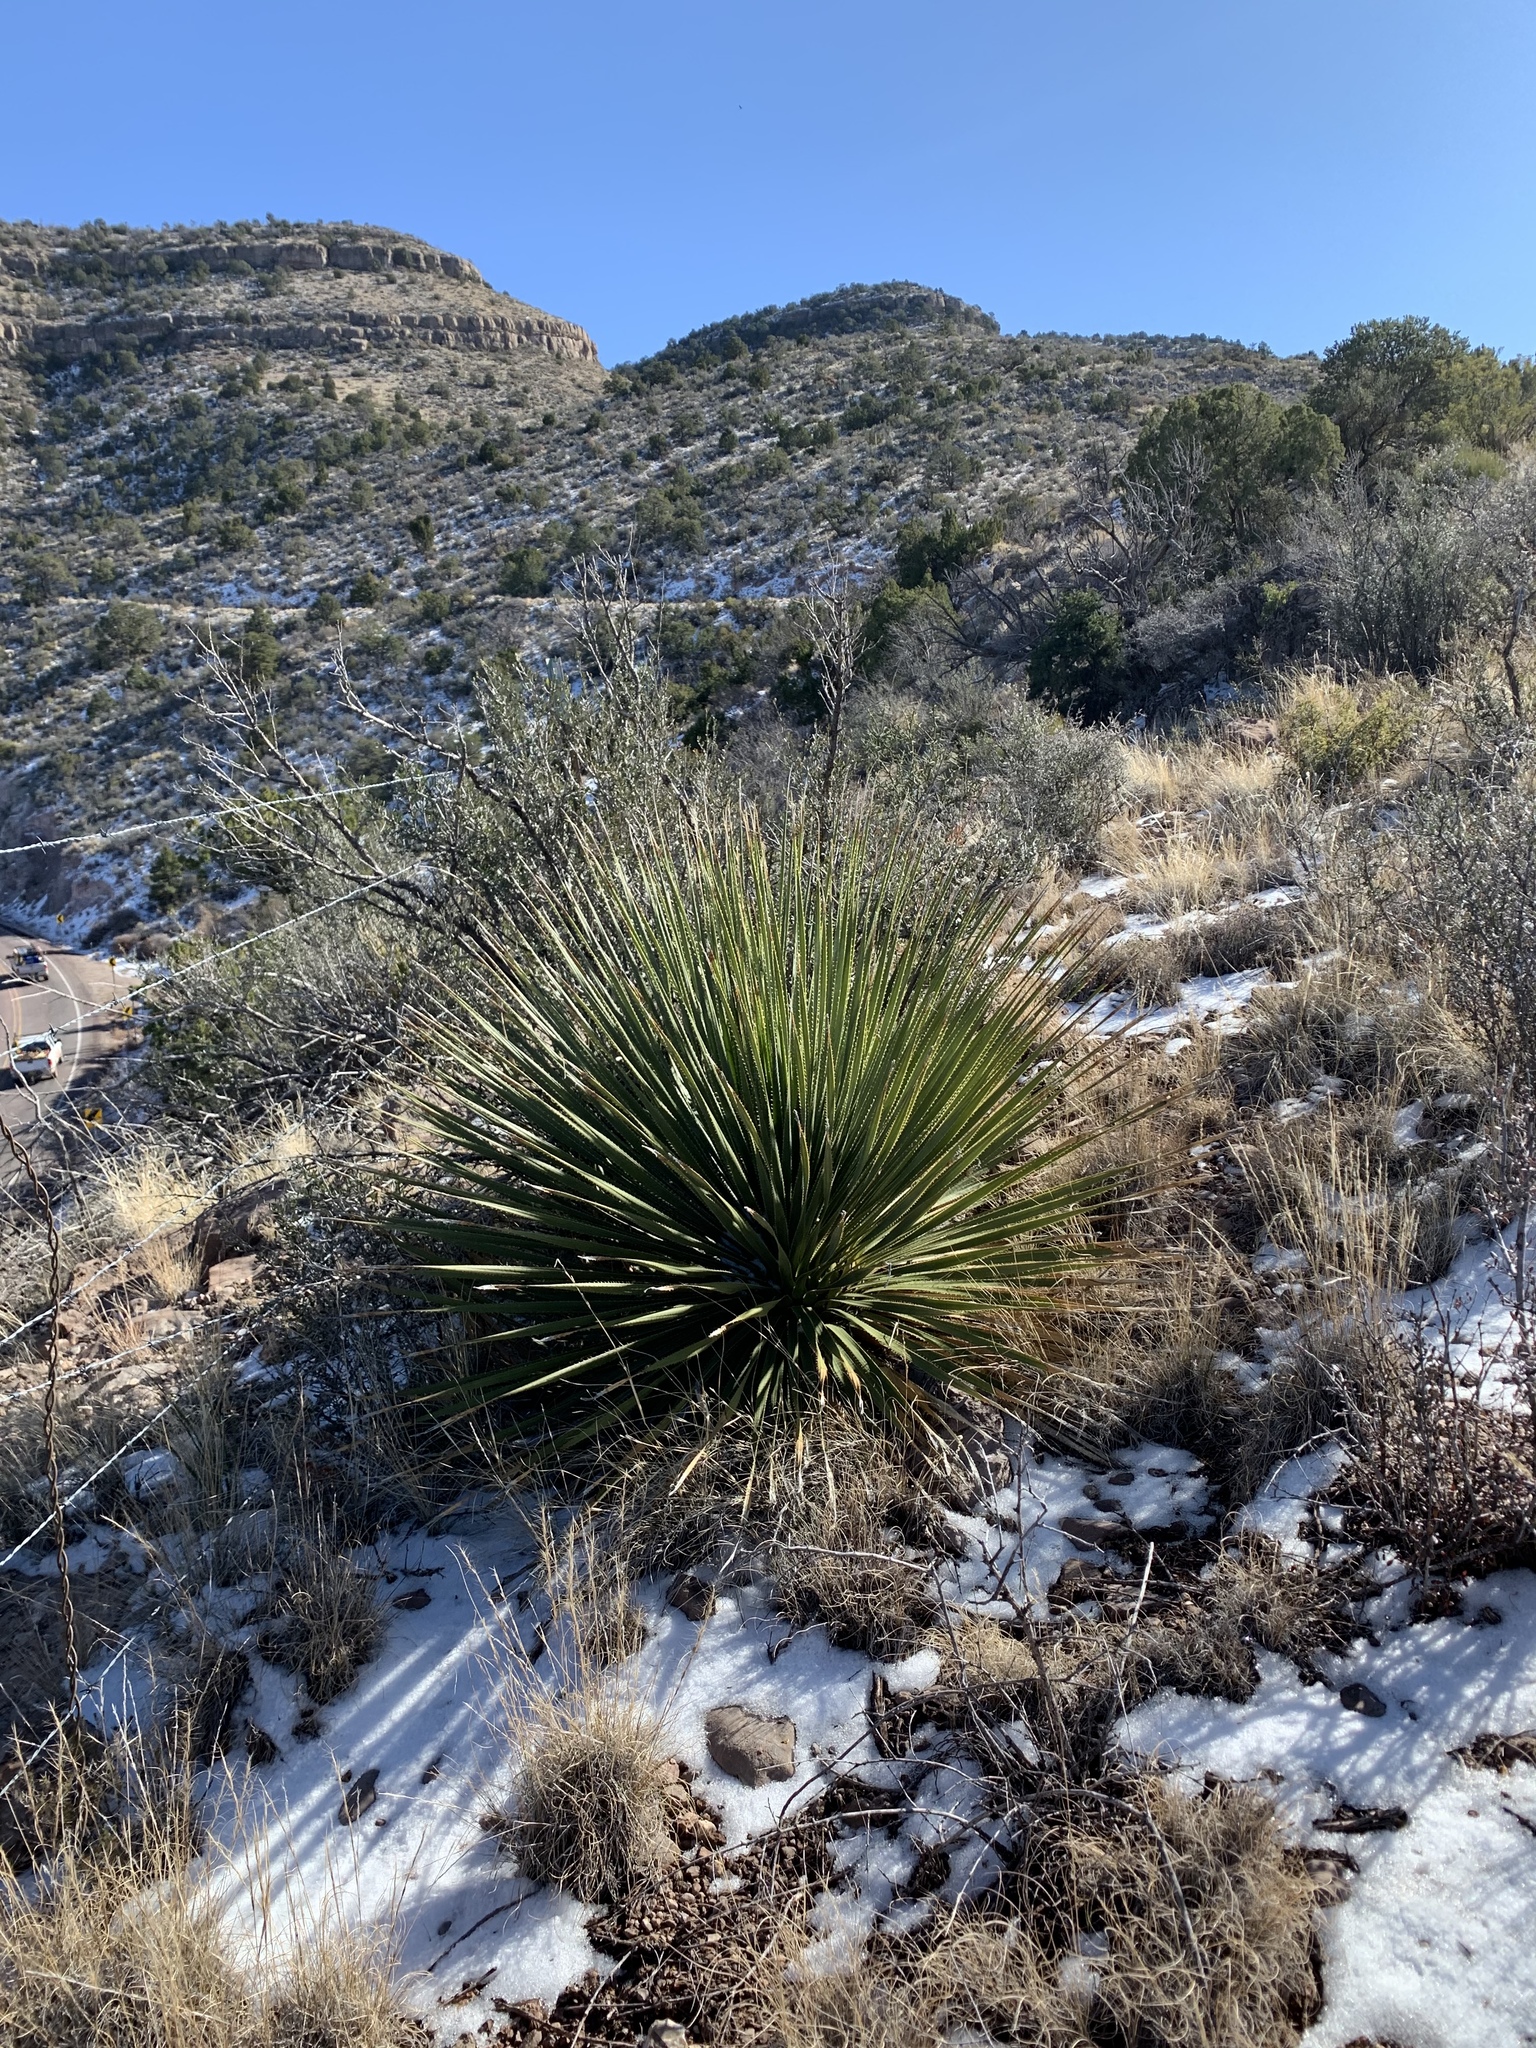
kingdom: Plantae
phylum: Tracheophyta
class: Liliopsida
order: Asparagales
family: Asparagaceae
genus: Dasylirion
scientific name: Dasylirion wheeleri
